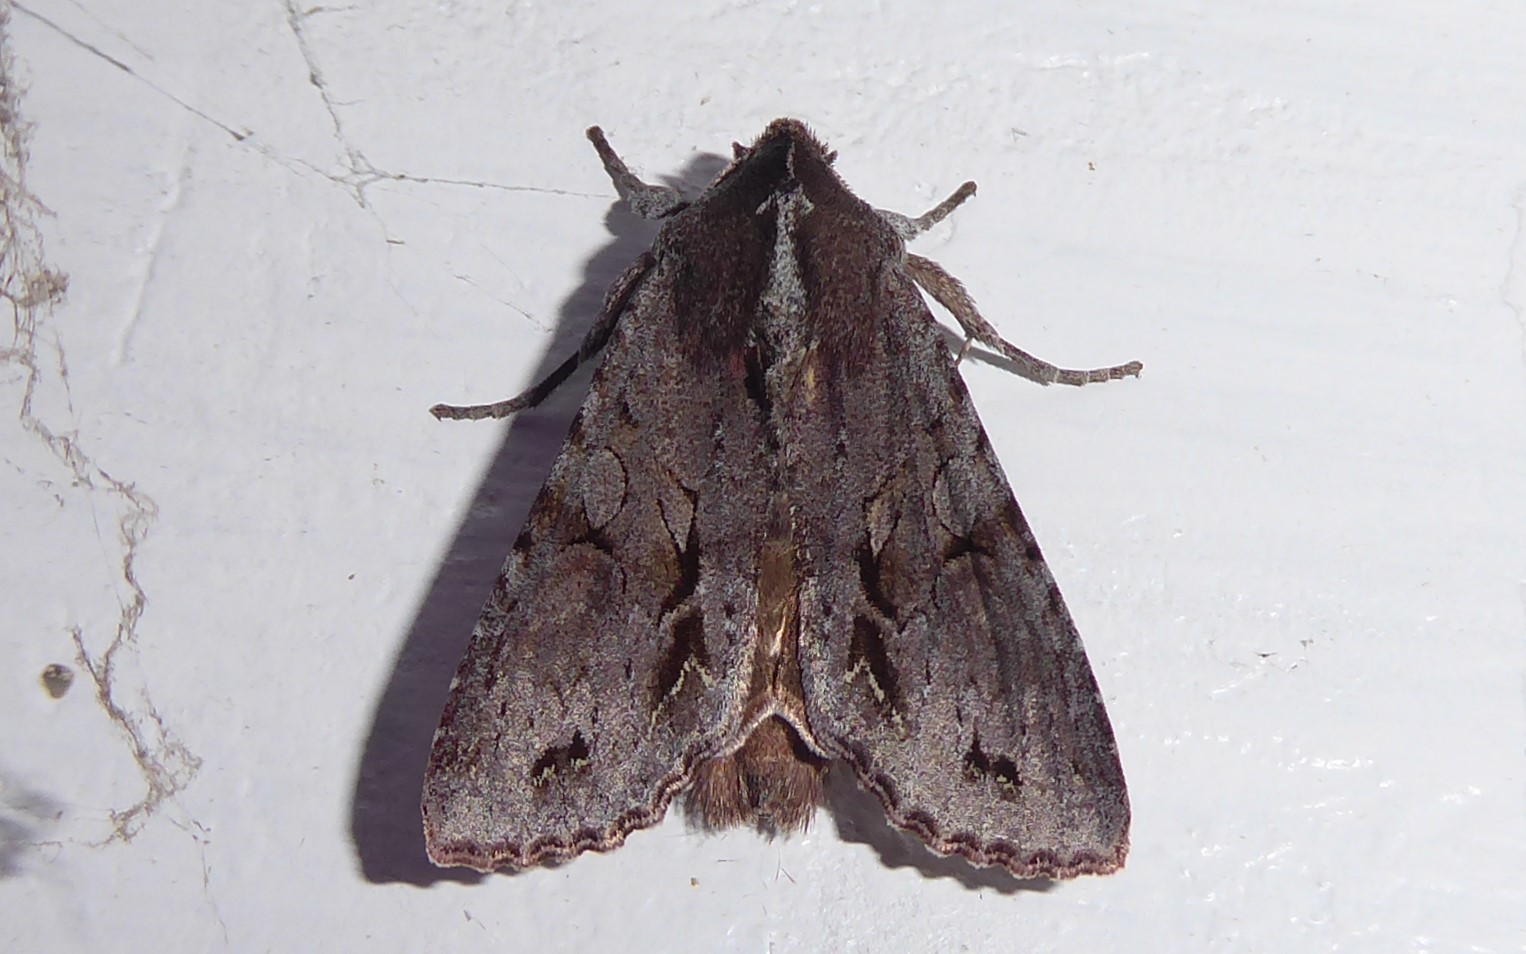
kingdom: Animalia
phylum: Arthropoda
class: Insecta
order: Lepidoptera
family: Noctuidae
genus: Ichneutica
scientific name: Ichneutica
